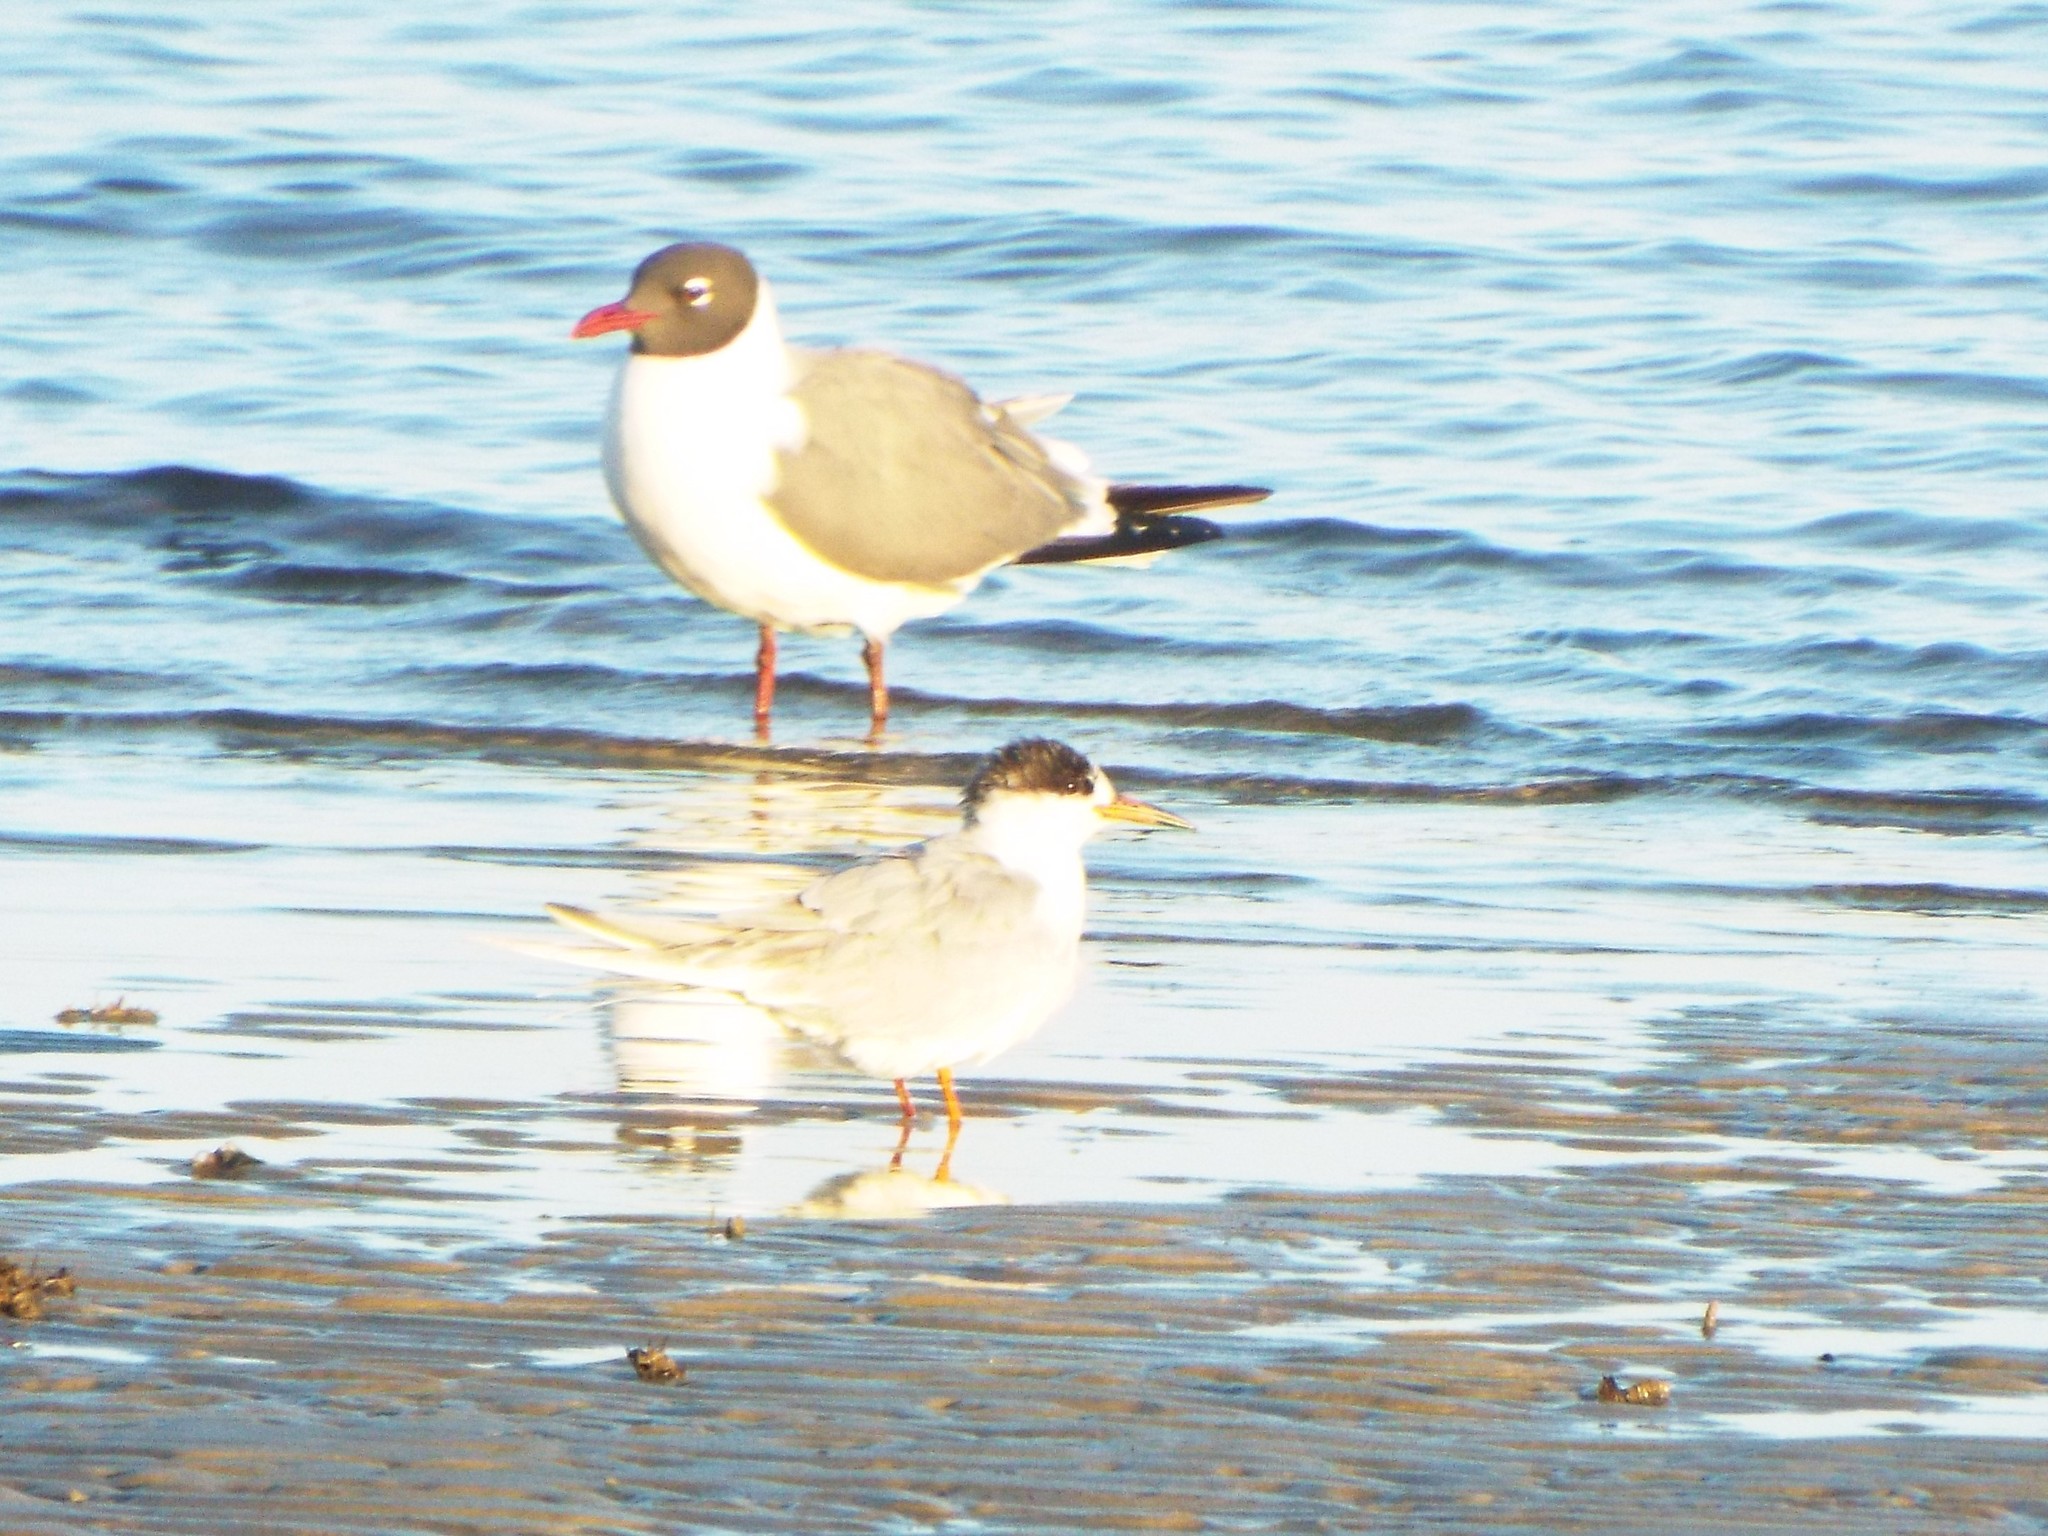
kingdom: Animalia
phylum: Chordata
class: Aves
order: Charadriiformes
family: Laridae
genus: Sterna
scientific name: Sterna forsteri
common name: Forster's tern
